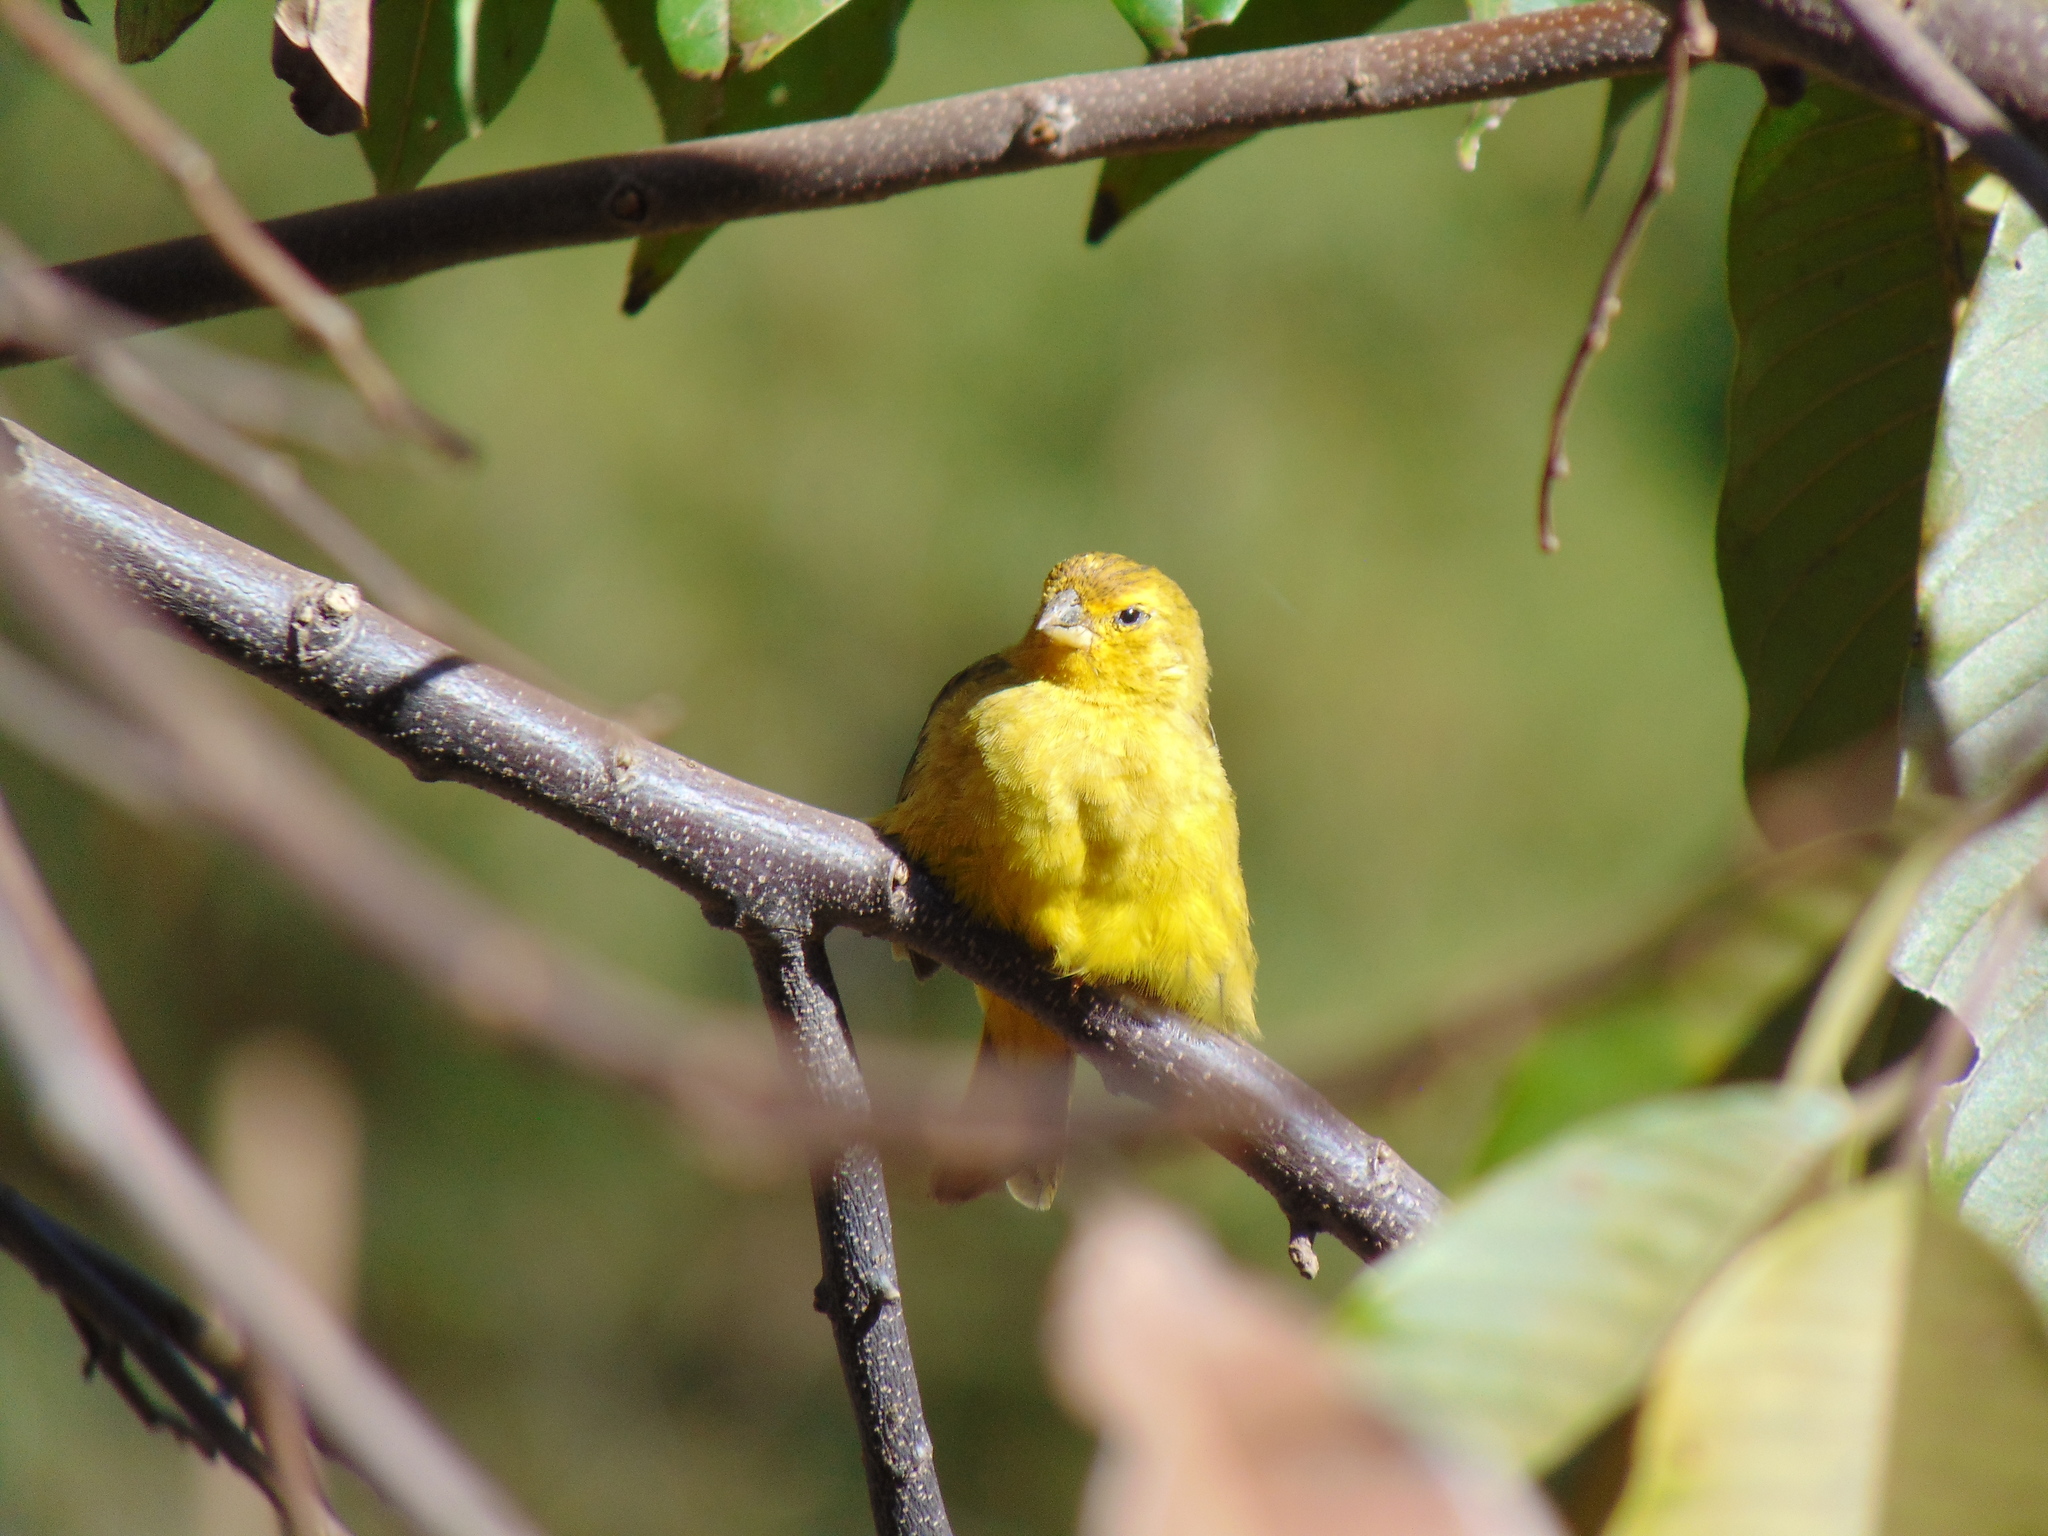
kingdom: Animalia
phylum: Chordata
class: Aves
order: Passeriformes
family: Thraupidae
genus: Sicalis
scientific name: Sicalis flaveola
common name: Saffron finch
